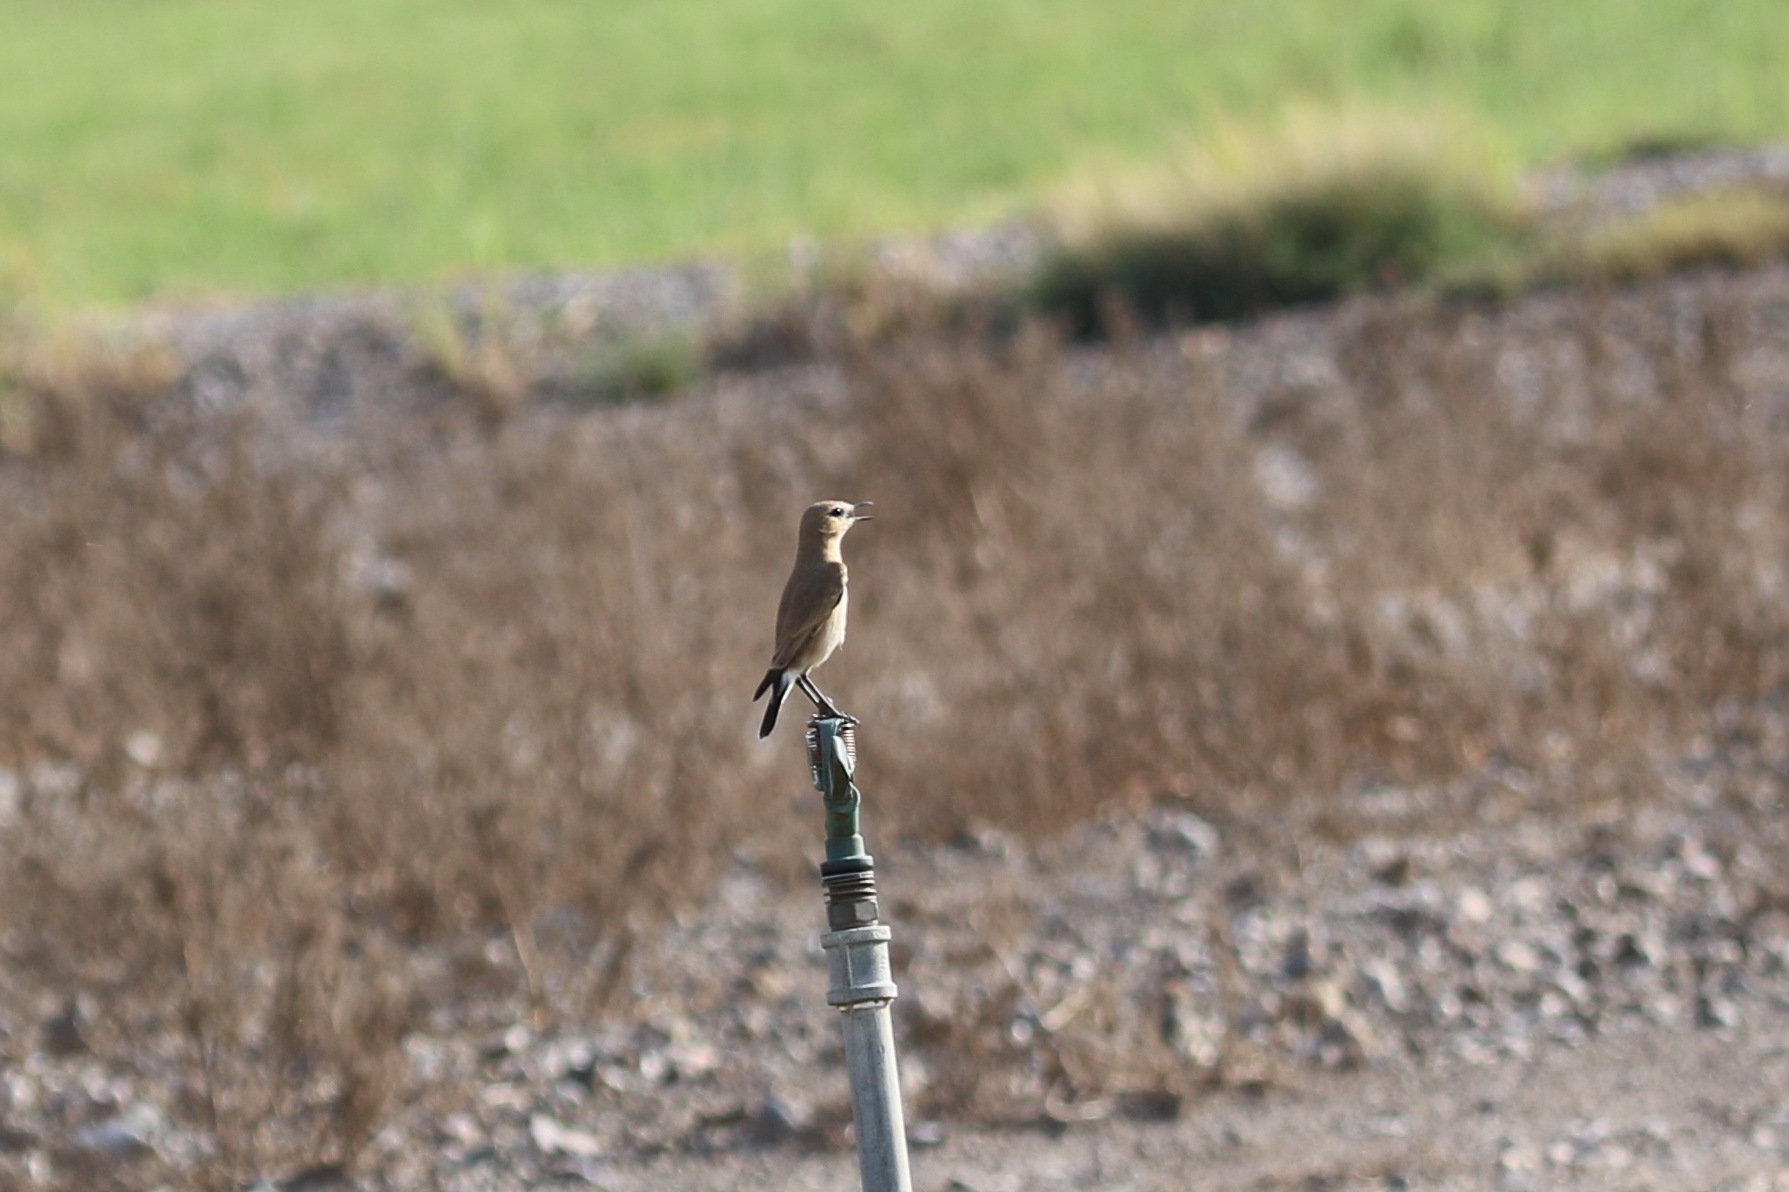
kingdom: Animalia
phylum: Chordata
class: Aves
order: Passeriformes
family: Muscicapidae
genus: Oenanthe
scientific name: Oenanthe isabellina
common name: Isabelline wheatear
